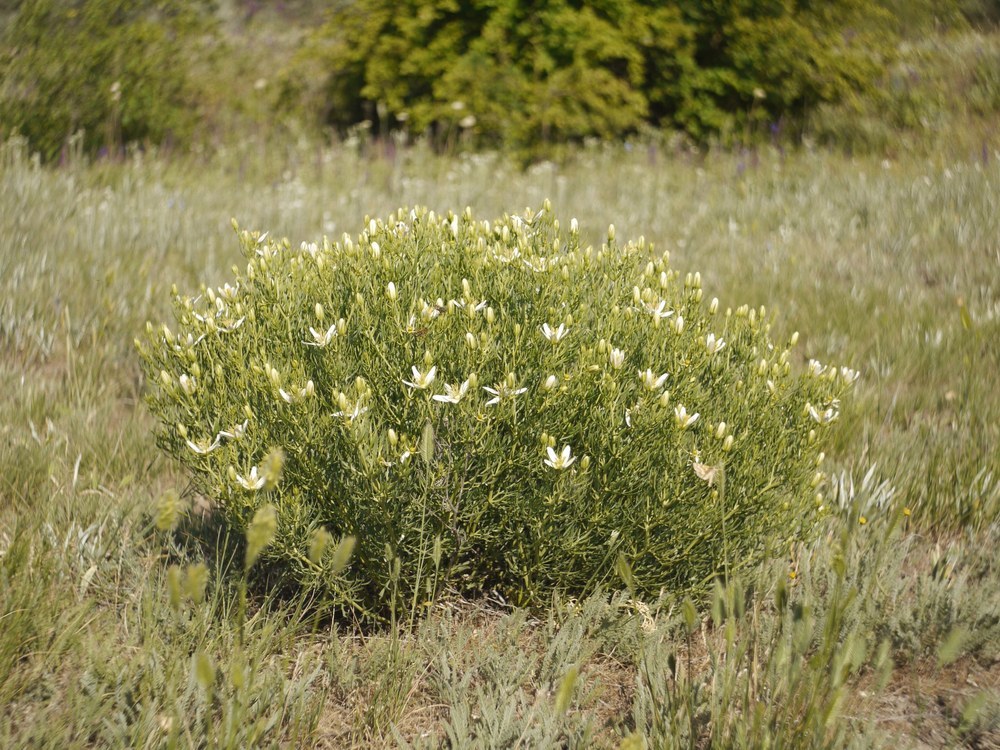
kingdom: Plantae
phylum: Tracheophyta
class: Magnoliopsida
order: Sapindales
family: Tetradiclidaceae
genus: Peganum
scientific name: Peganum harmala
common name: Harmal peganum
